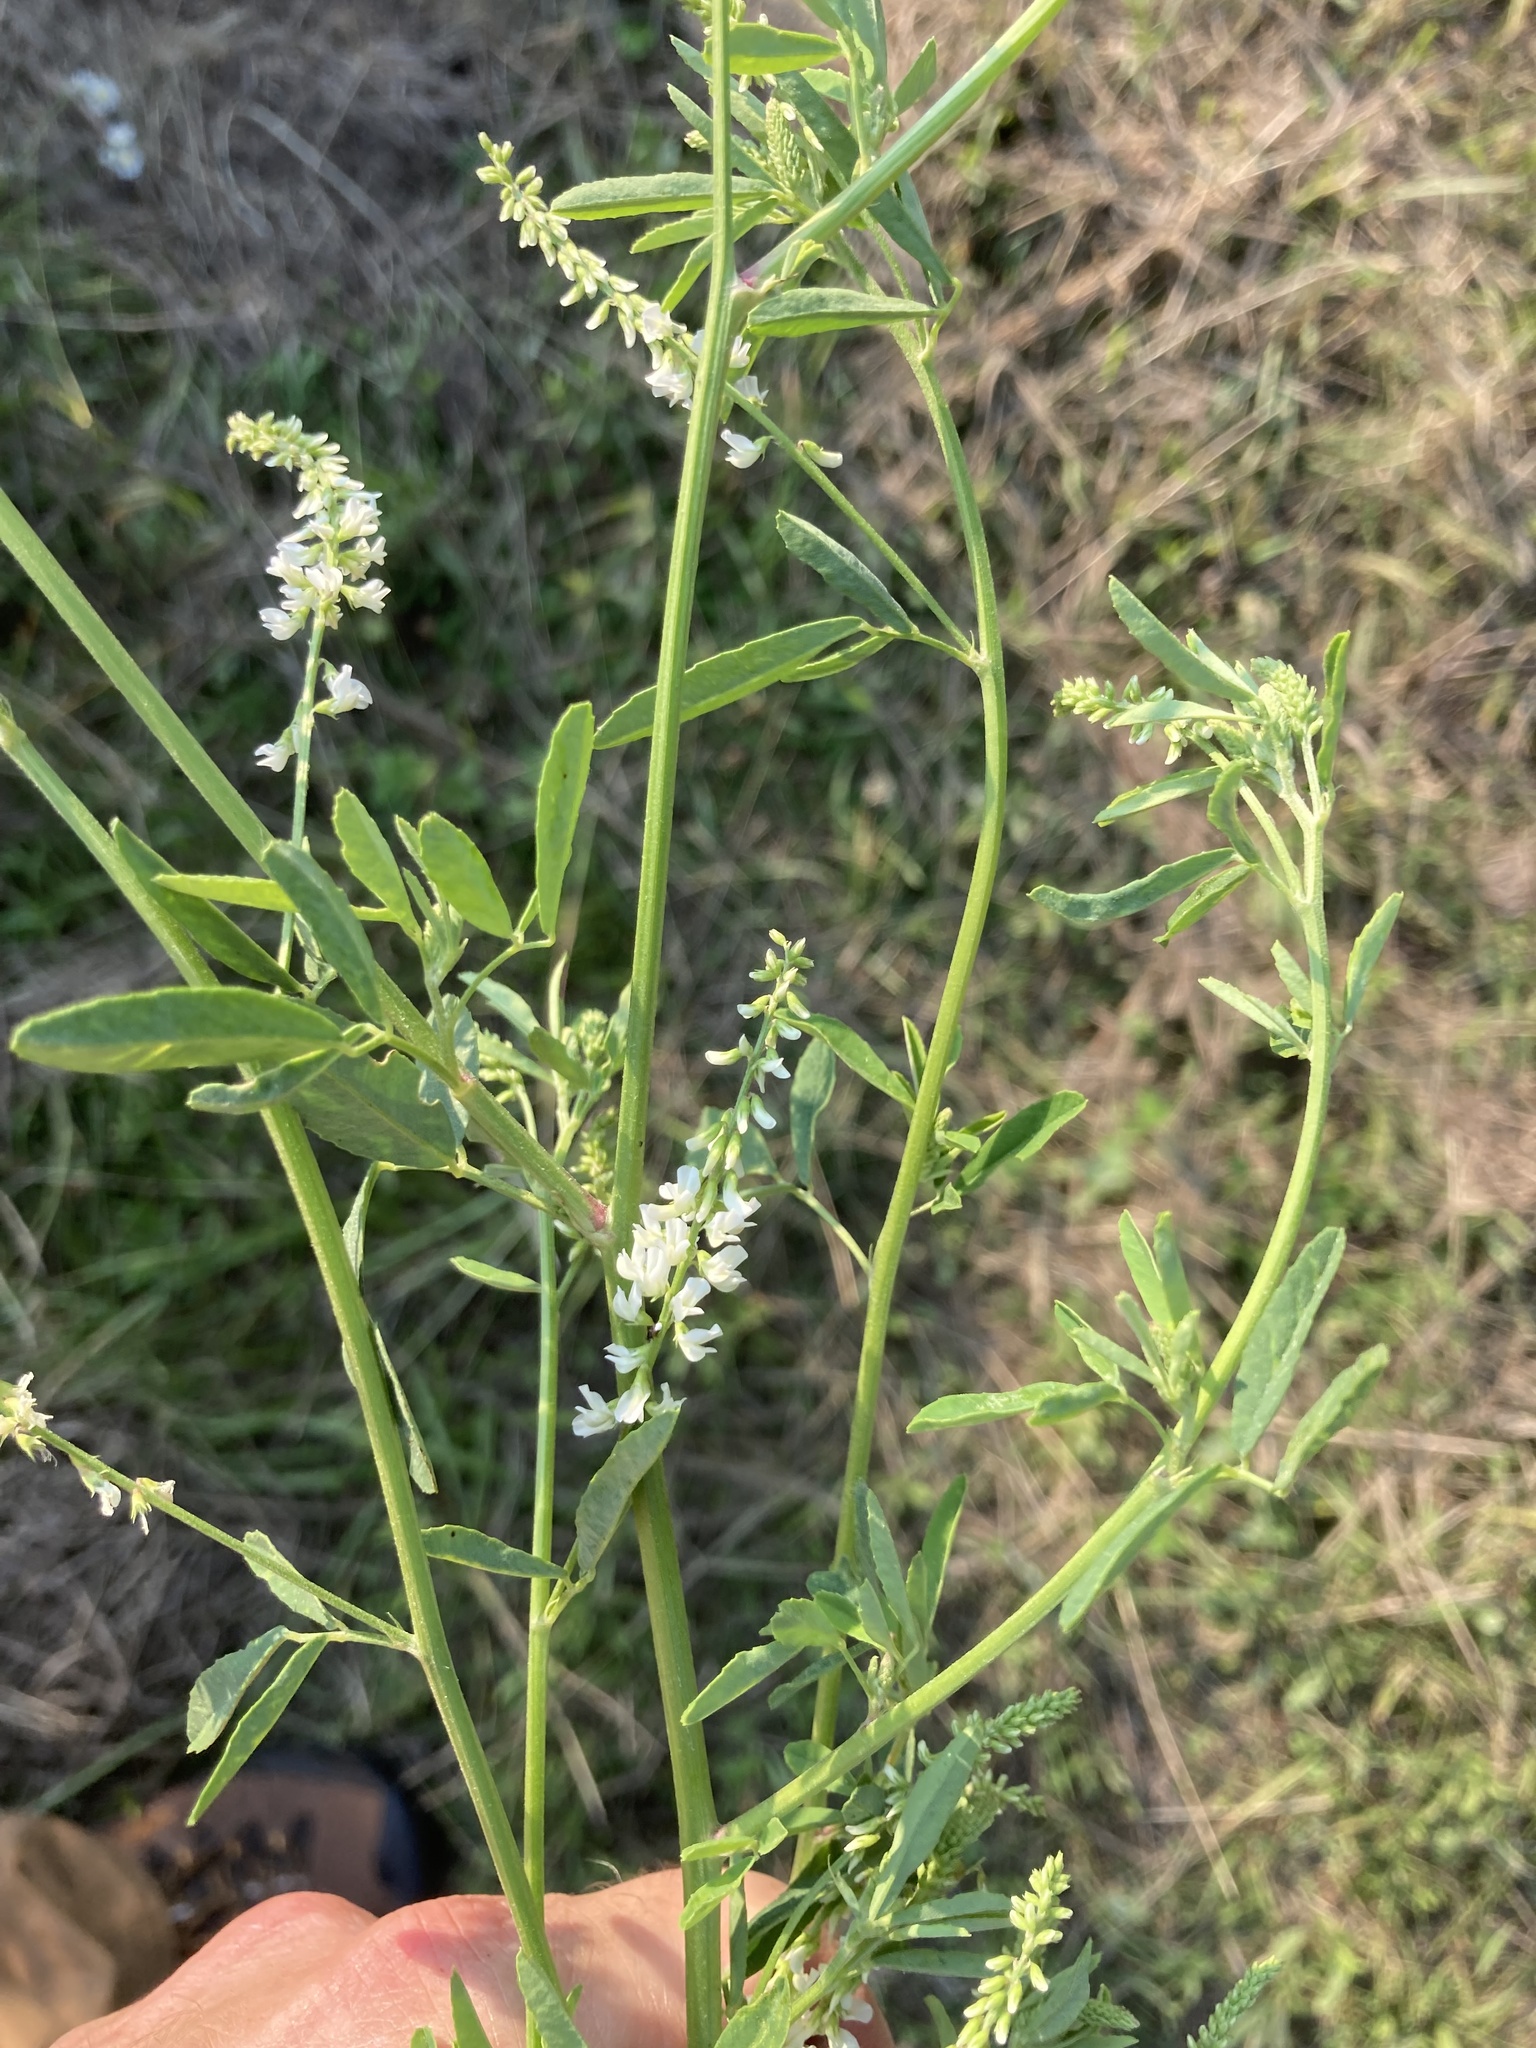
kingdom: Plantae
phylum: Tracheophyta
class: Magnoliopsida
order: Fabales
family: Fabaceae
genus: Melilotus
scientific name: Melilotus albus
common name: White melilot
